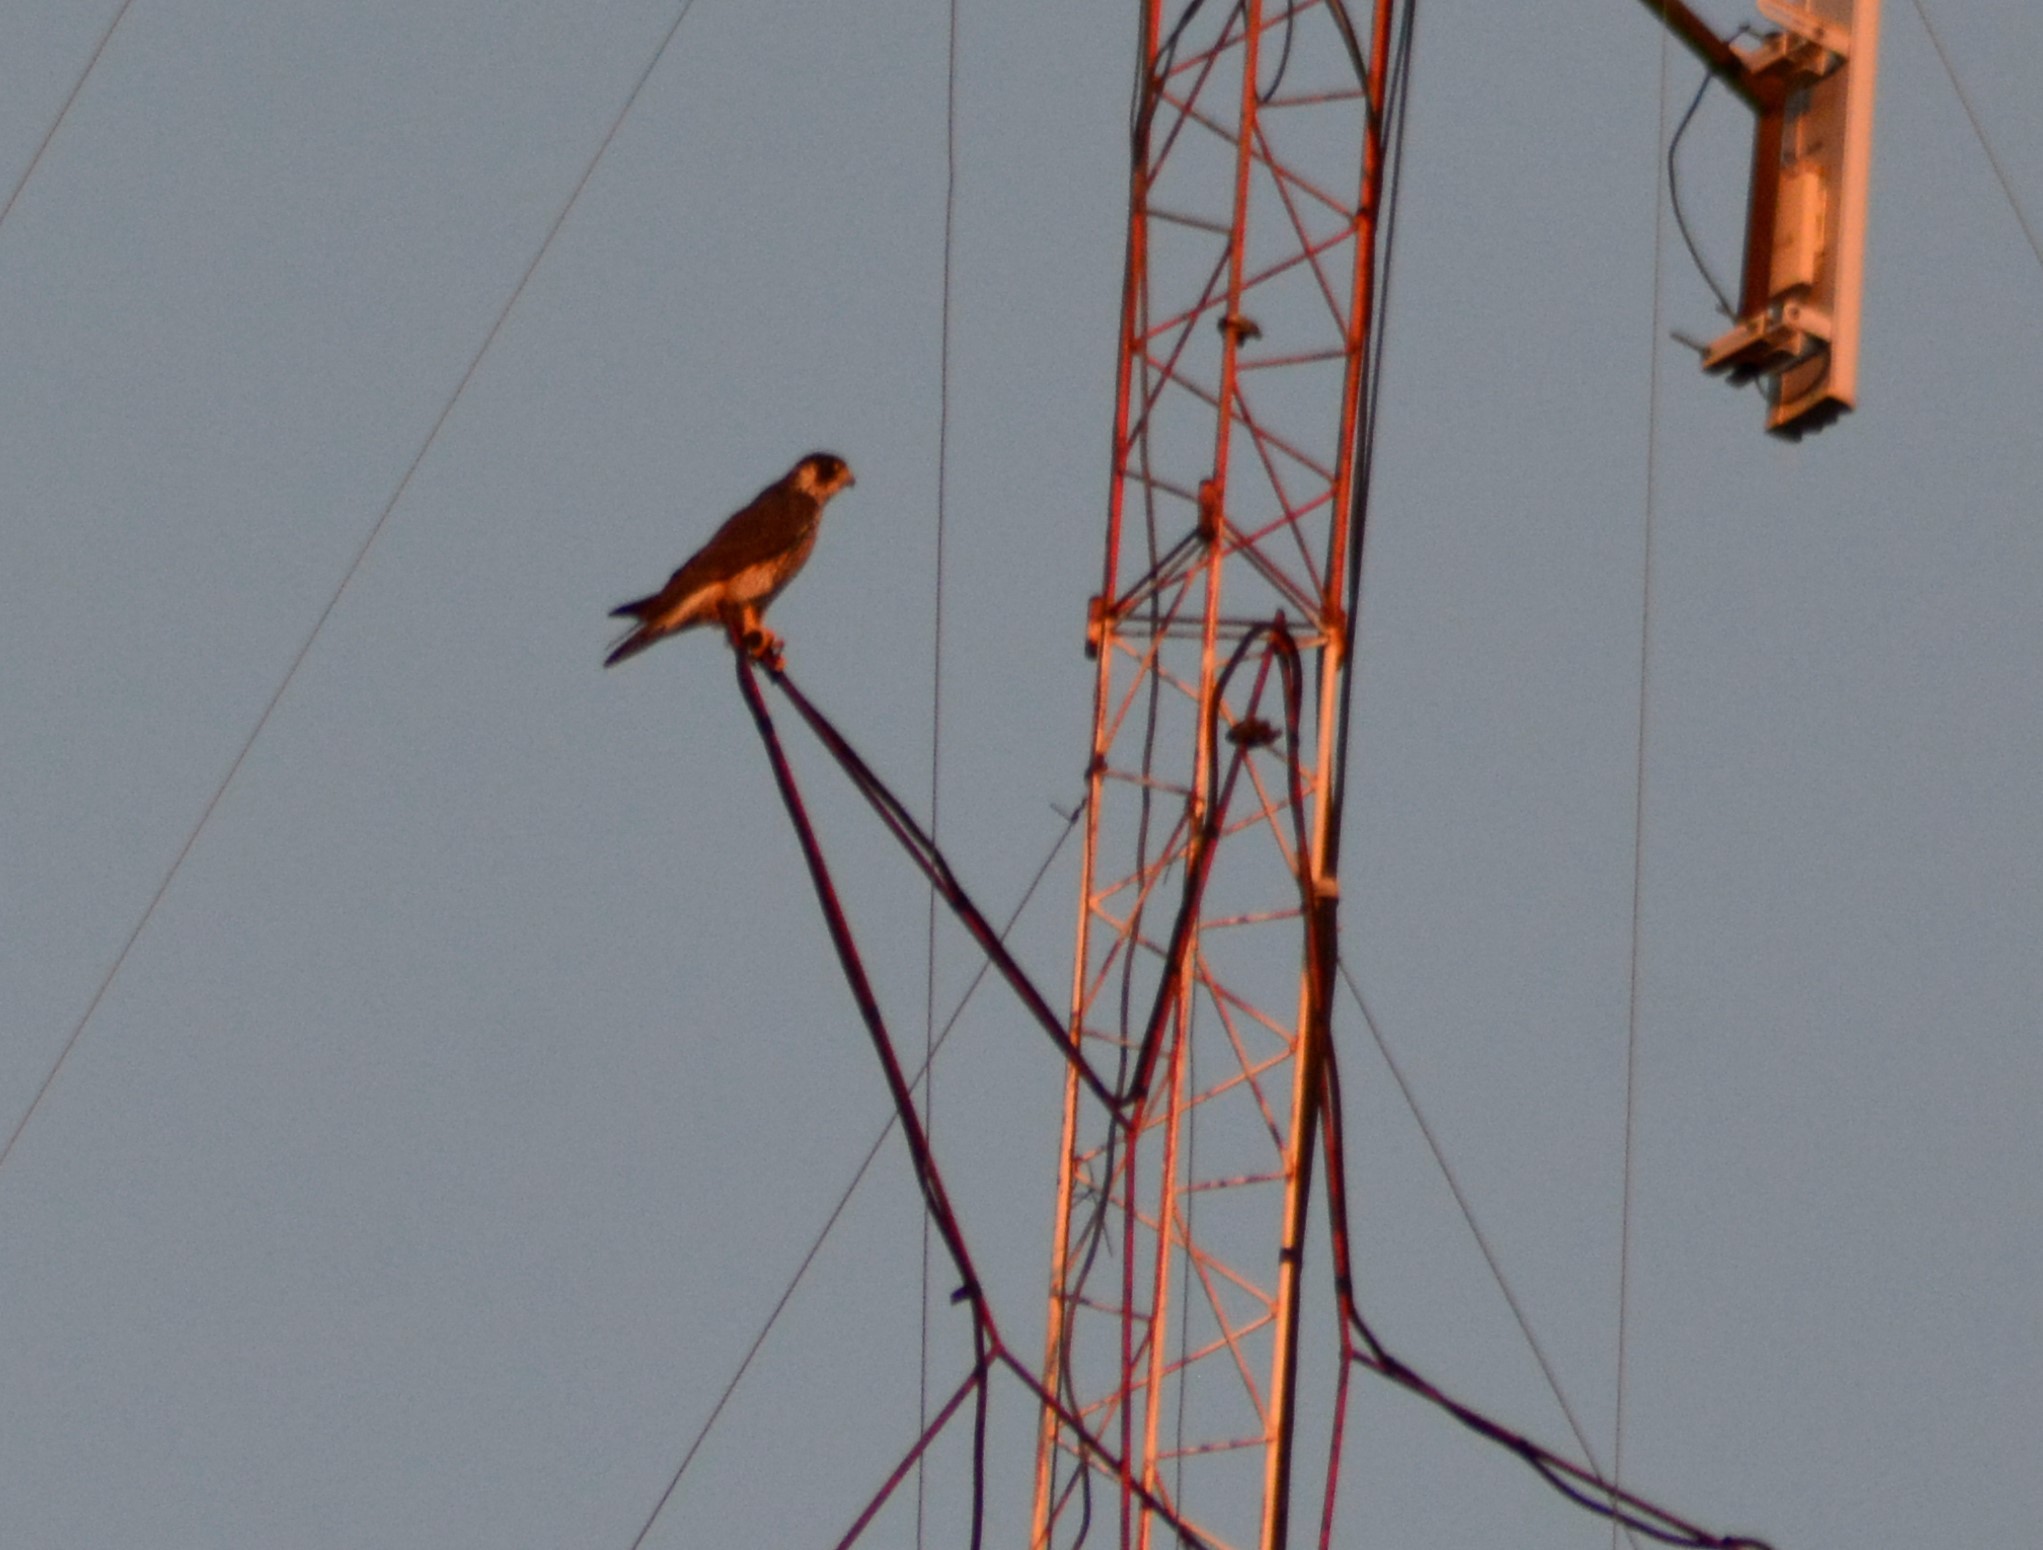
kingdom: Animalia
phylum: Chordata
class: Aves
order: Falconiformes
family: Falconidae
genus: Falco
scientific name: Falco peregrinus
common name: Peregrine falcon
